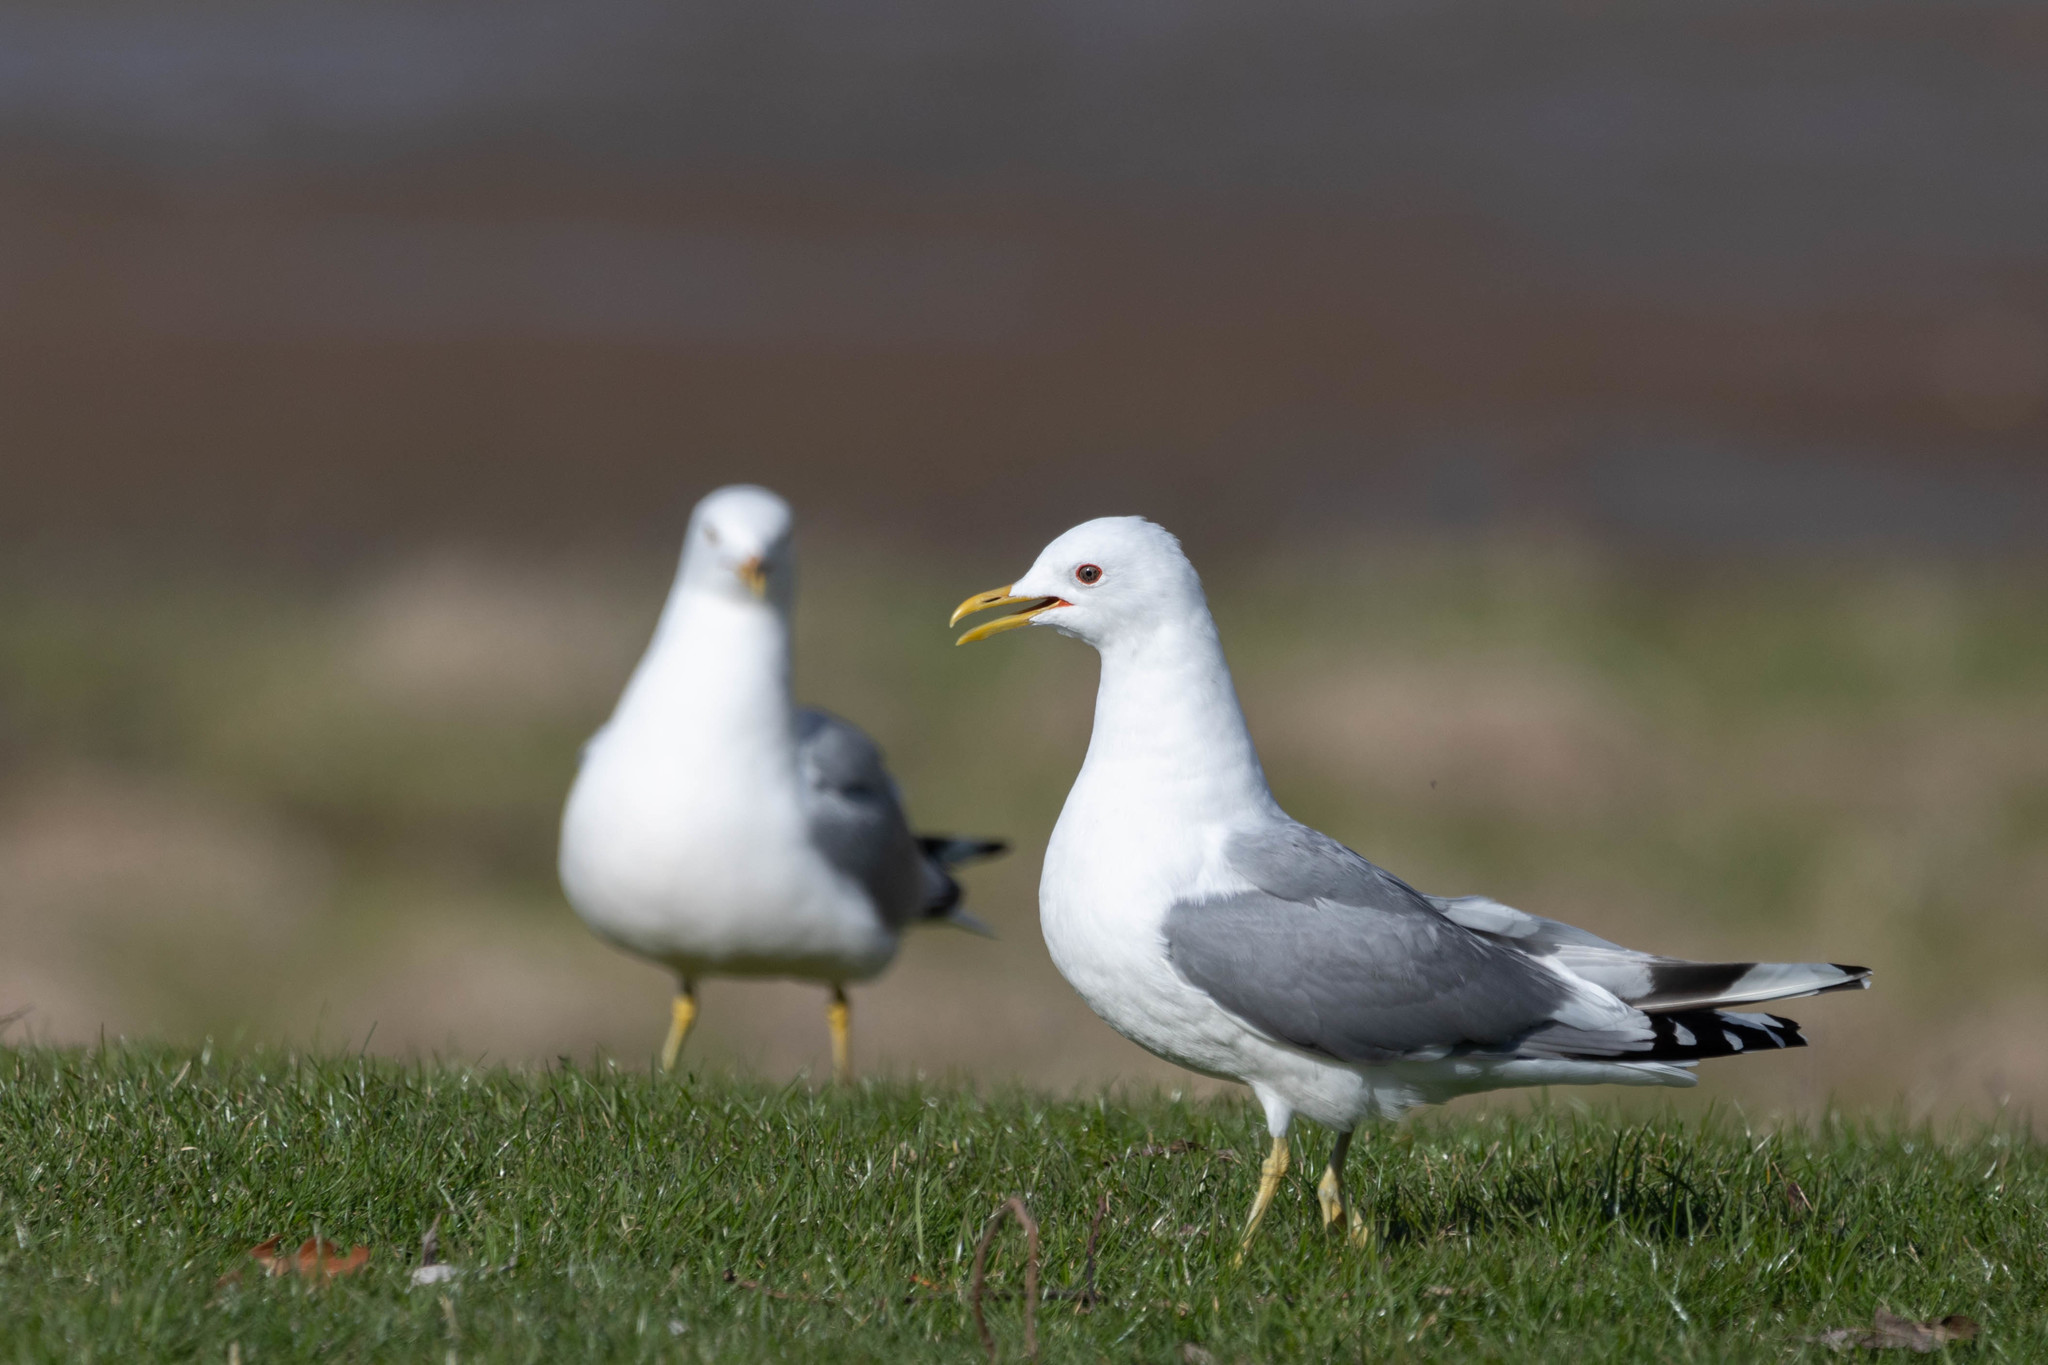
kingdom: Animalia
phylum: Chordata
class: Aves
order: Charadriiformes
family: Laridae
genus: Larus
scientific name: Larus brachyrhynchus
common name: Short-billed gull
